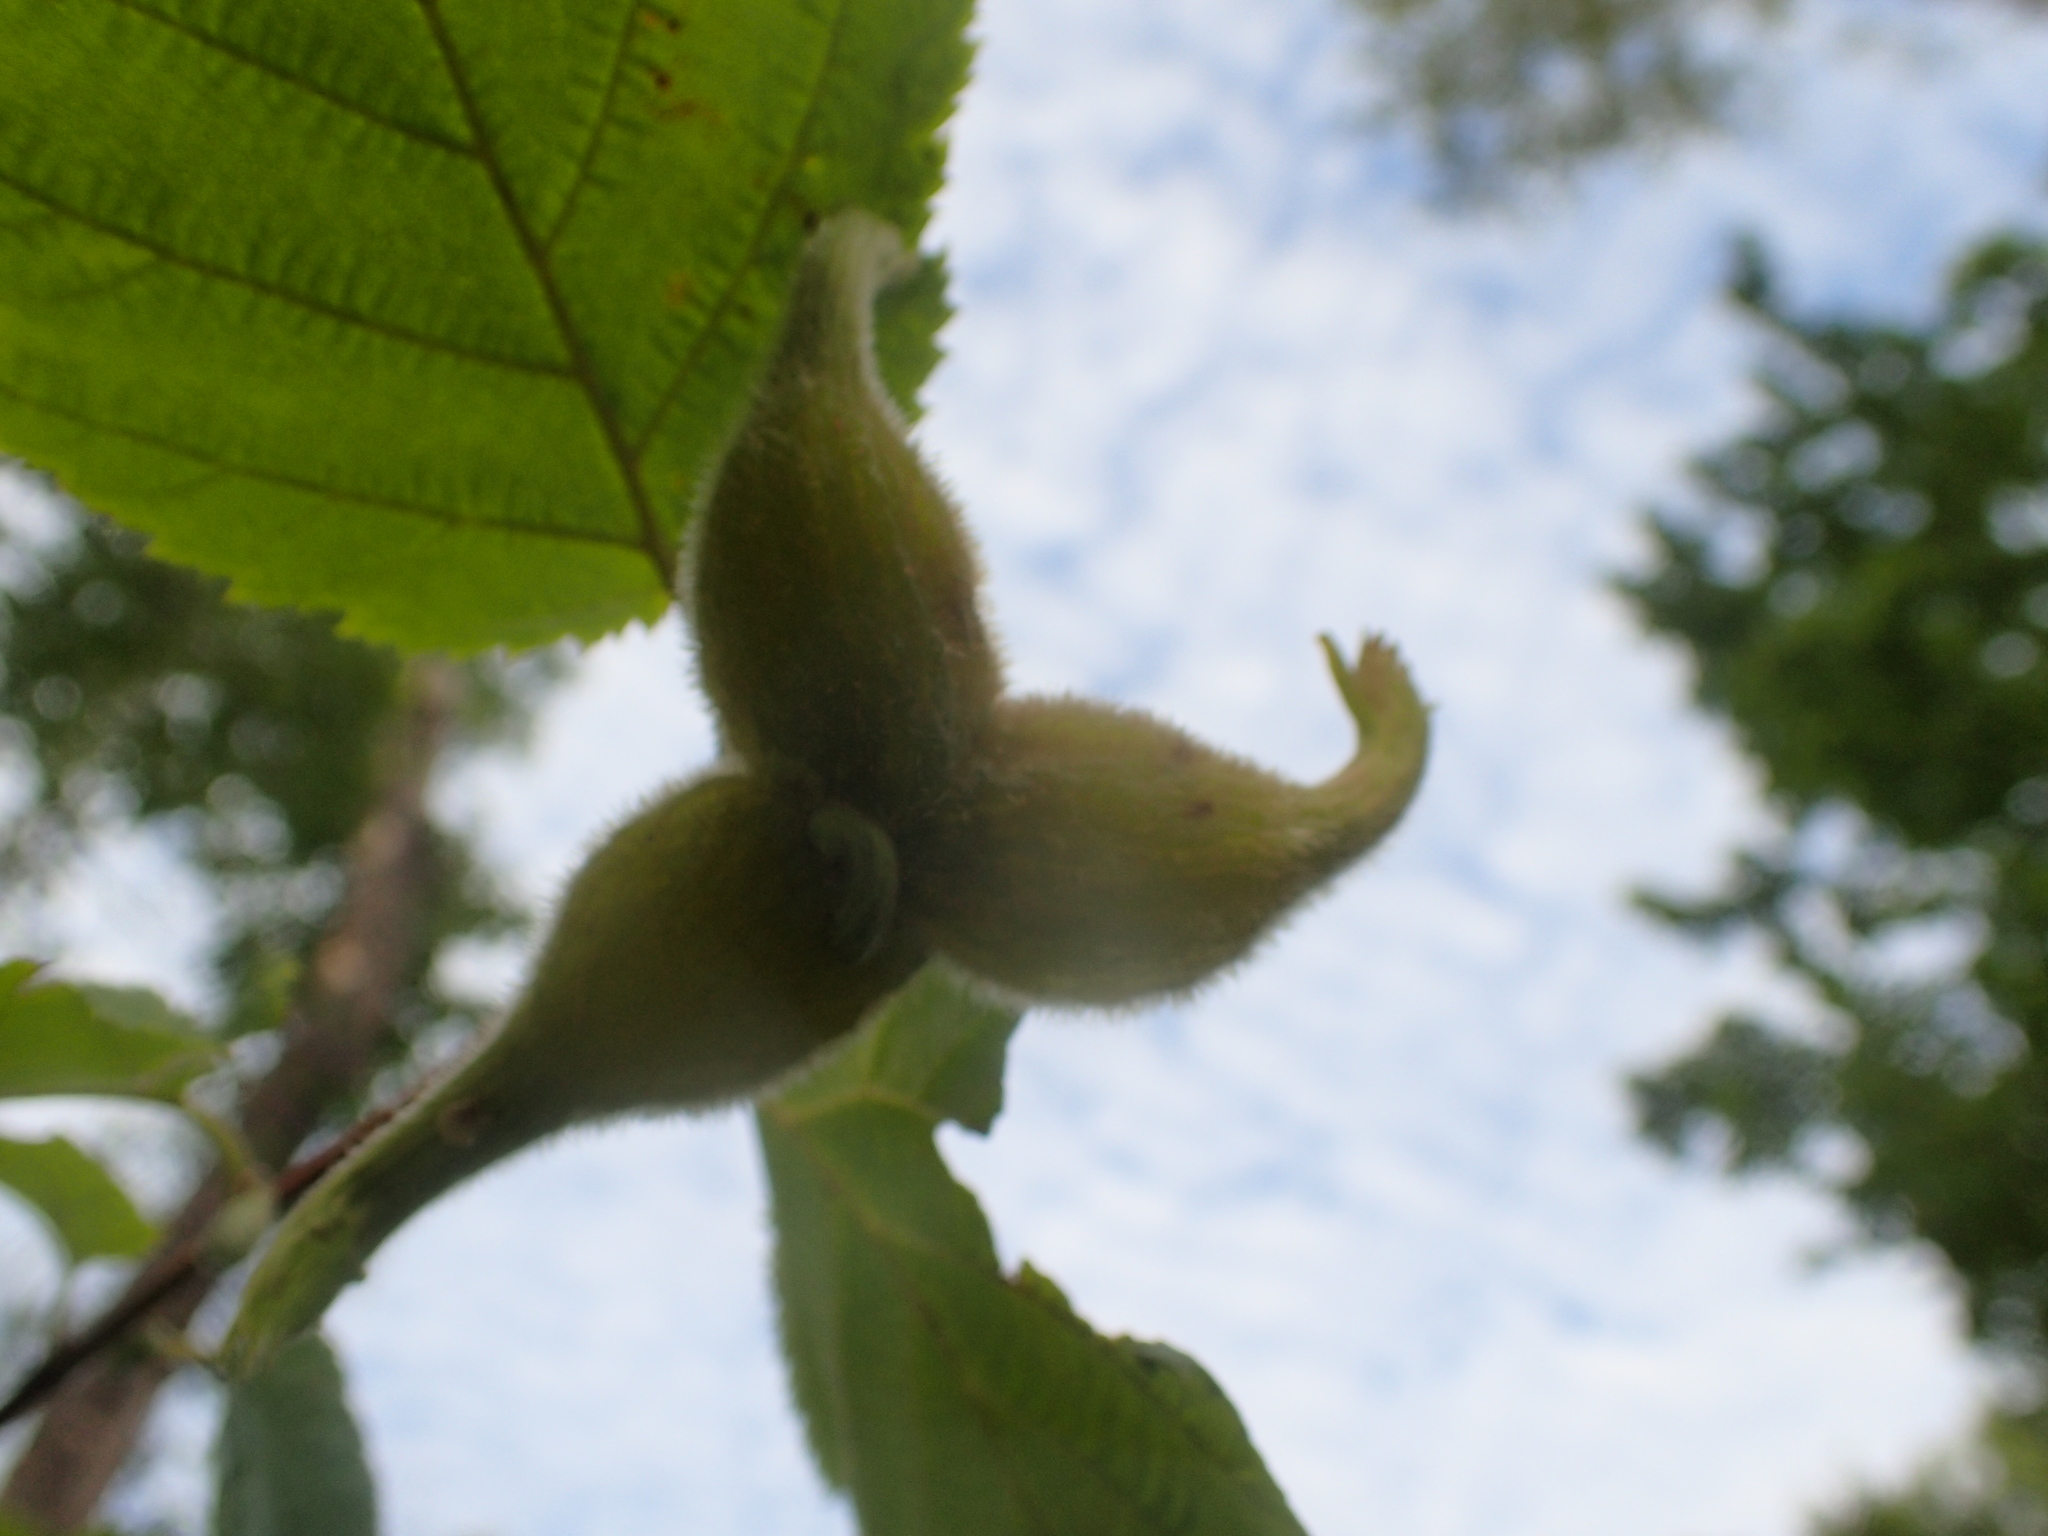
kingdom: Plantae
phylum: Tracheophyta
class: Magnoliopsida
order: Fagales
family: Betulaceae
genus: Corylus
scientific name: Corylus cornuta
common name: Beaked hazel
